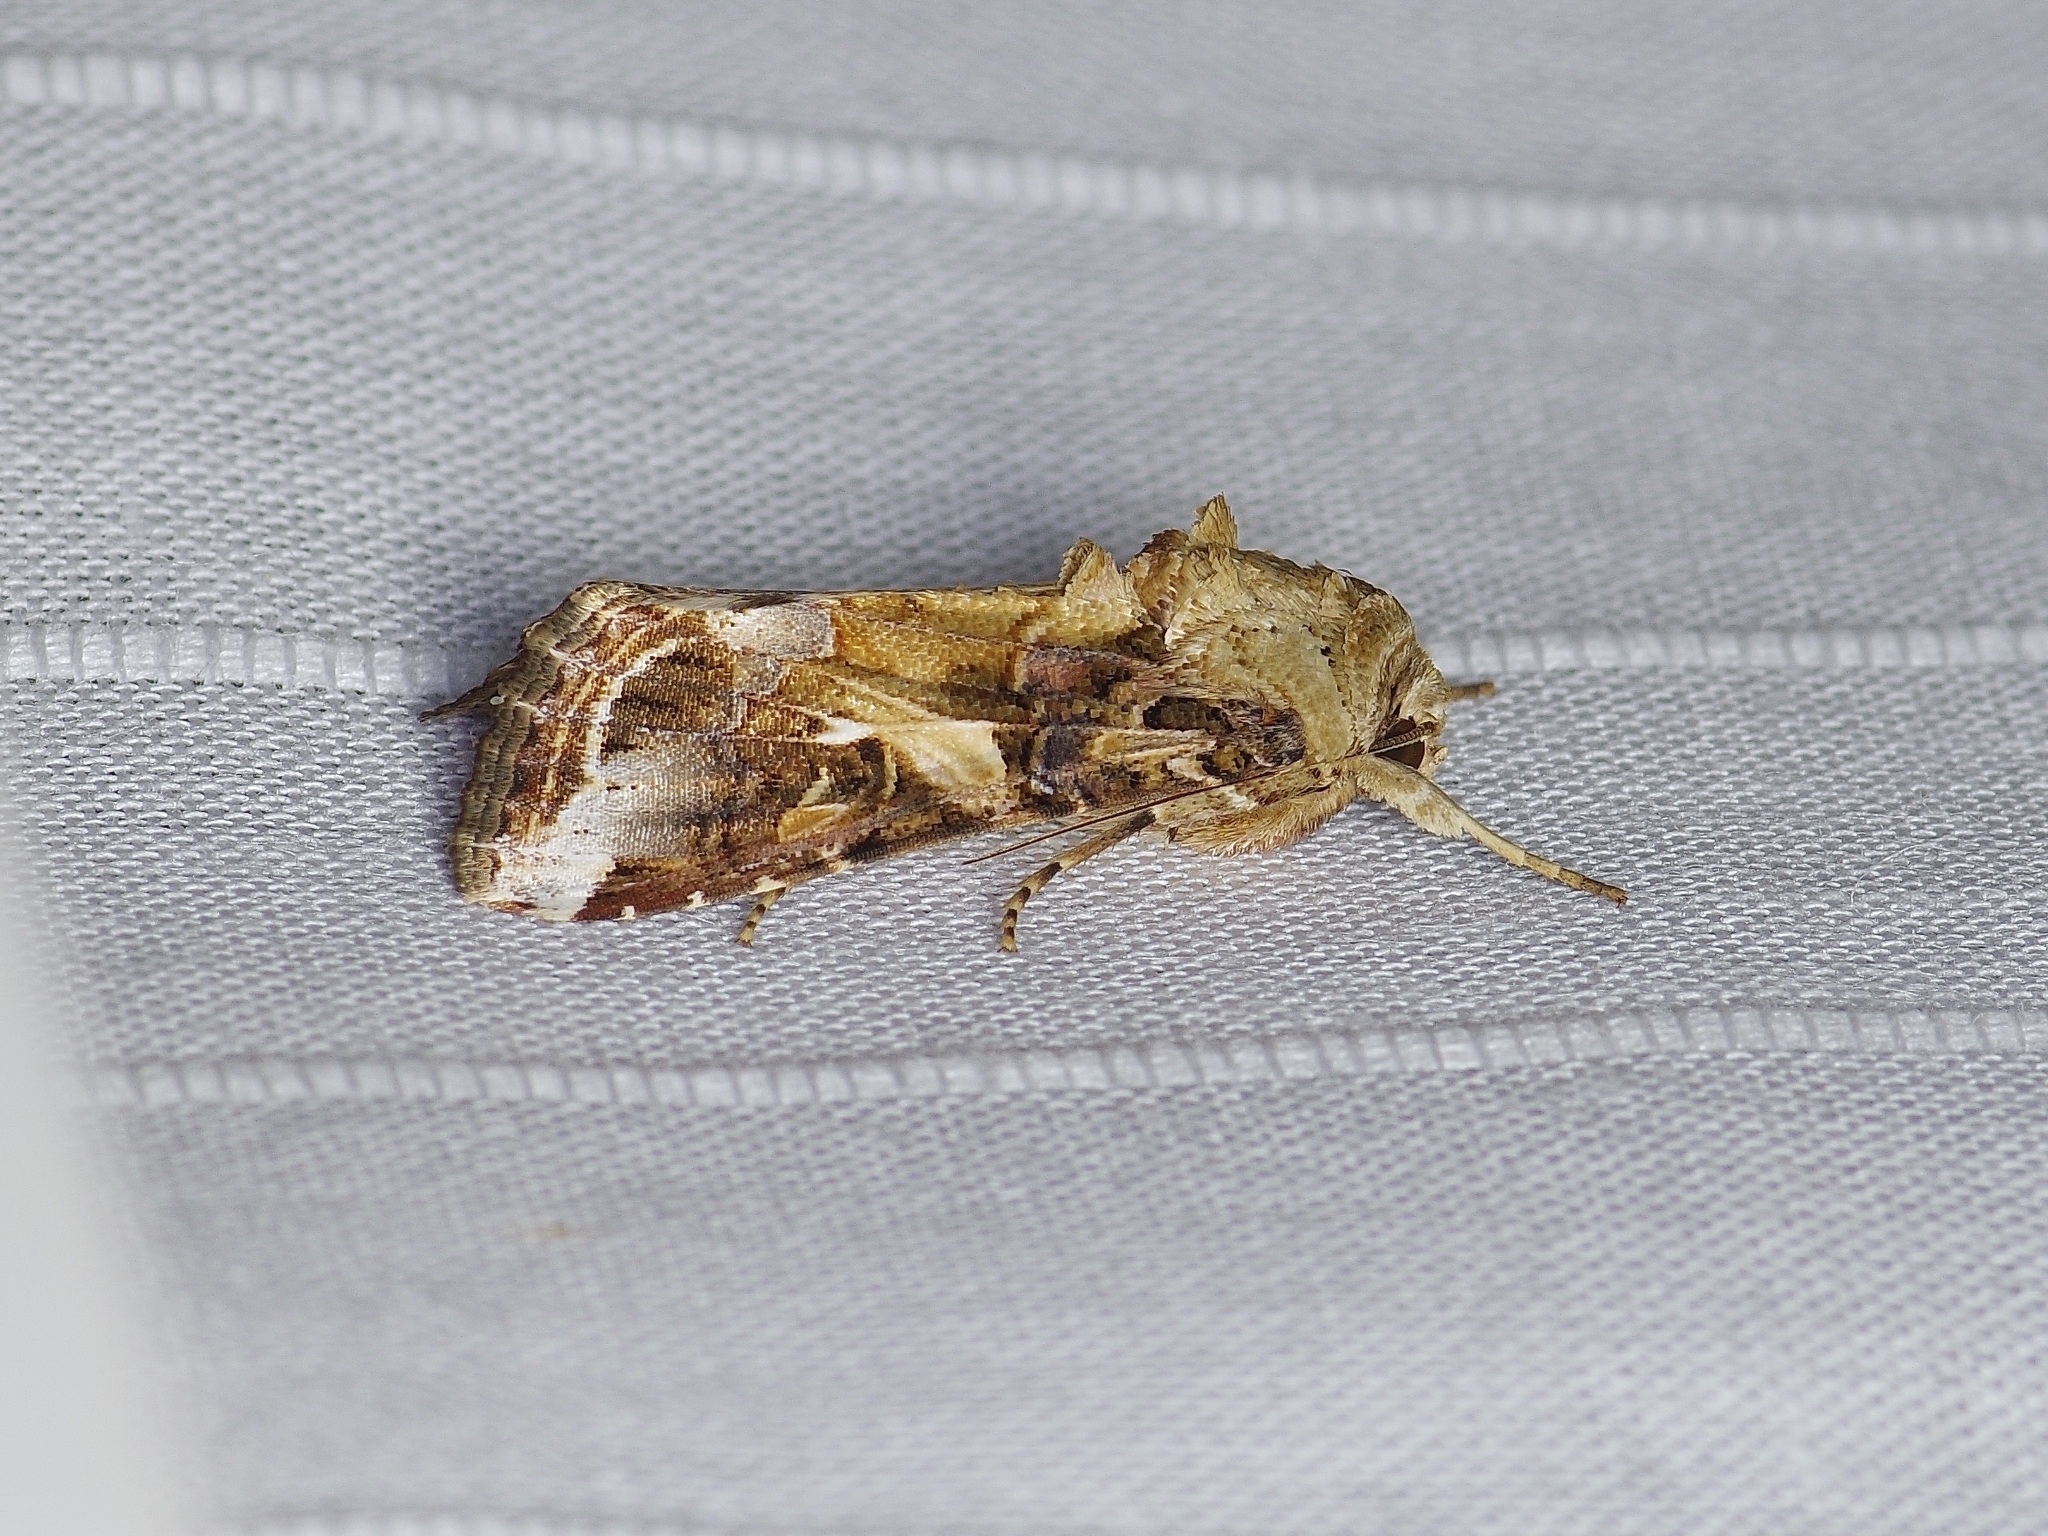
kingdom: Animalia
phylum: Arthropoda
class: Insecta
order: Lepidoptera
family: Noctuidae
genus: Spodoptera
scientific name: Spodoptera ornithogalli
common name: Yellow-striped armyworm
